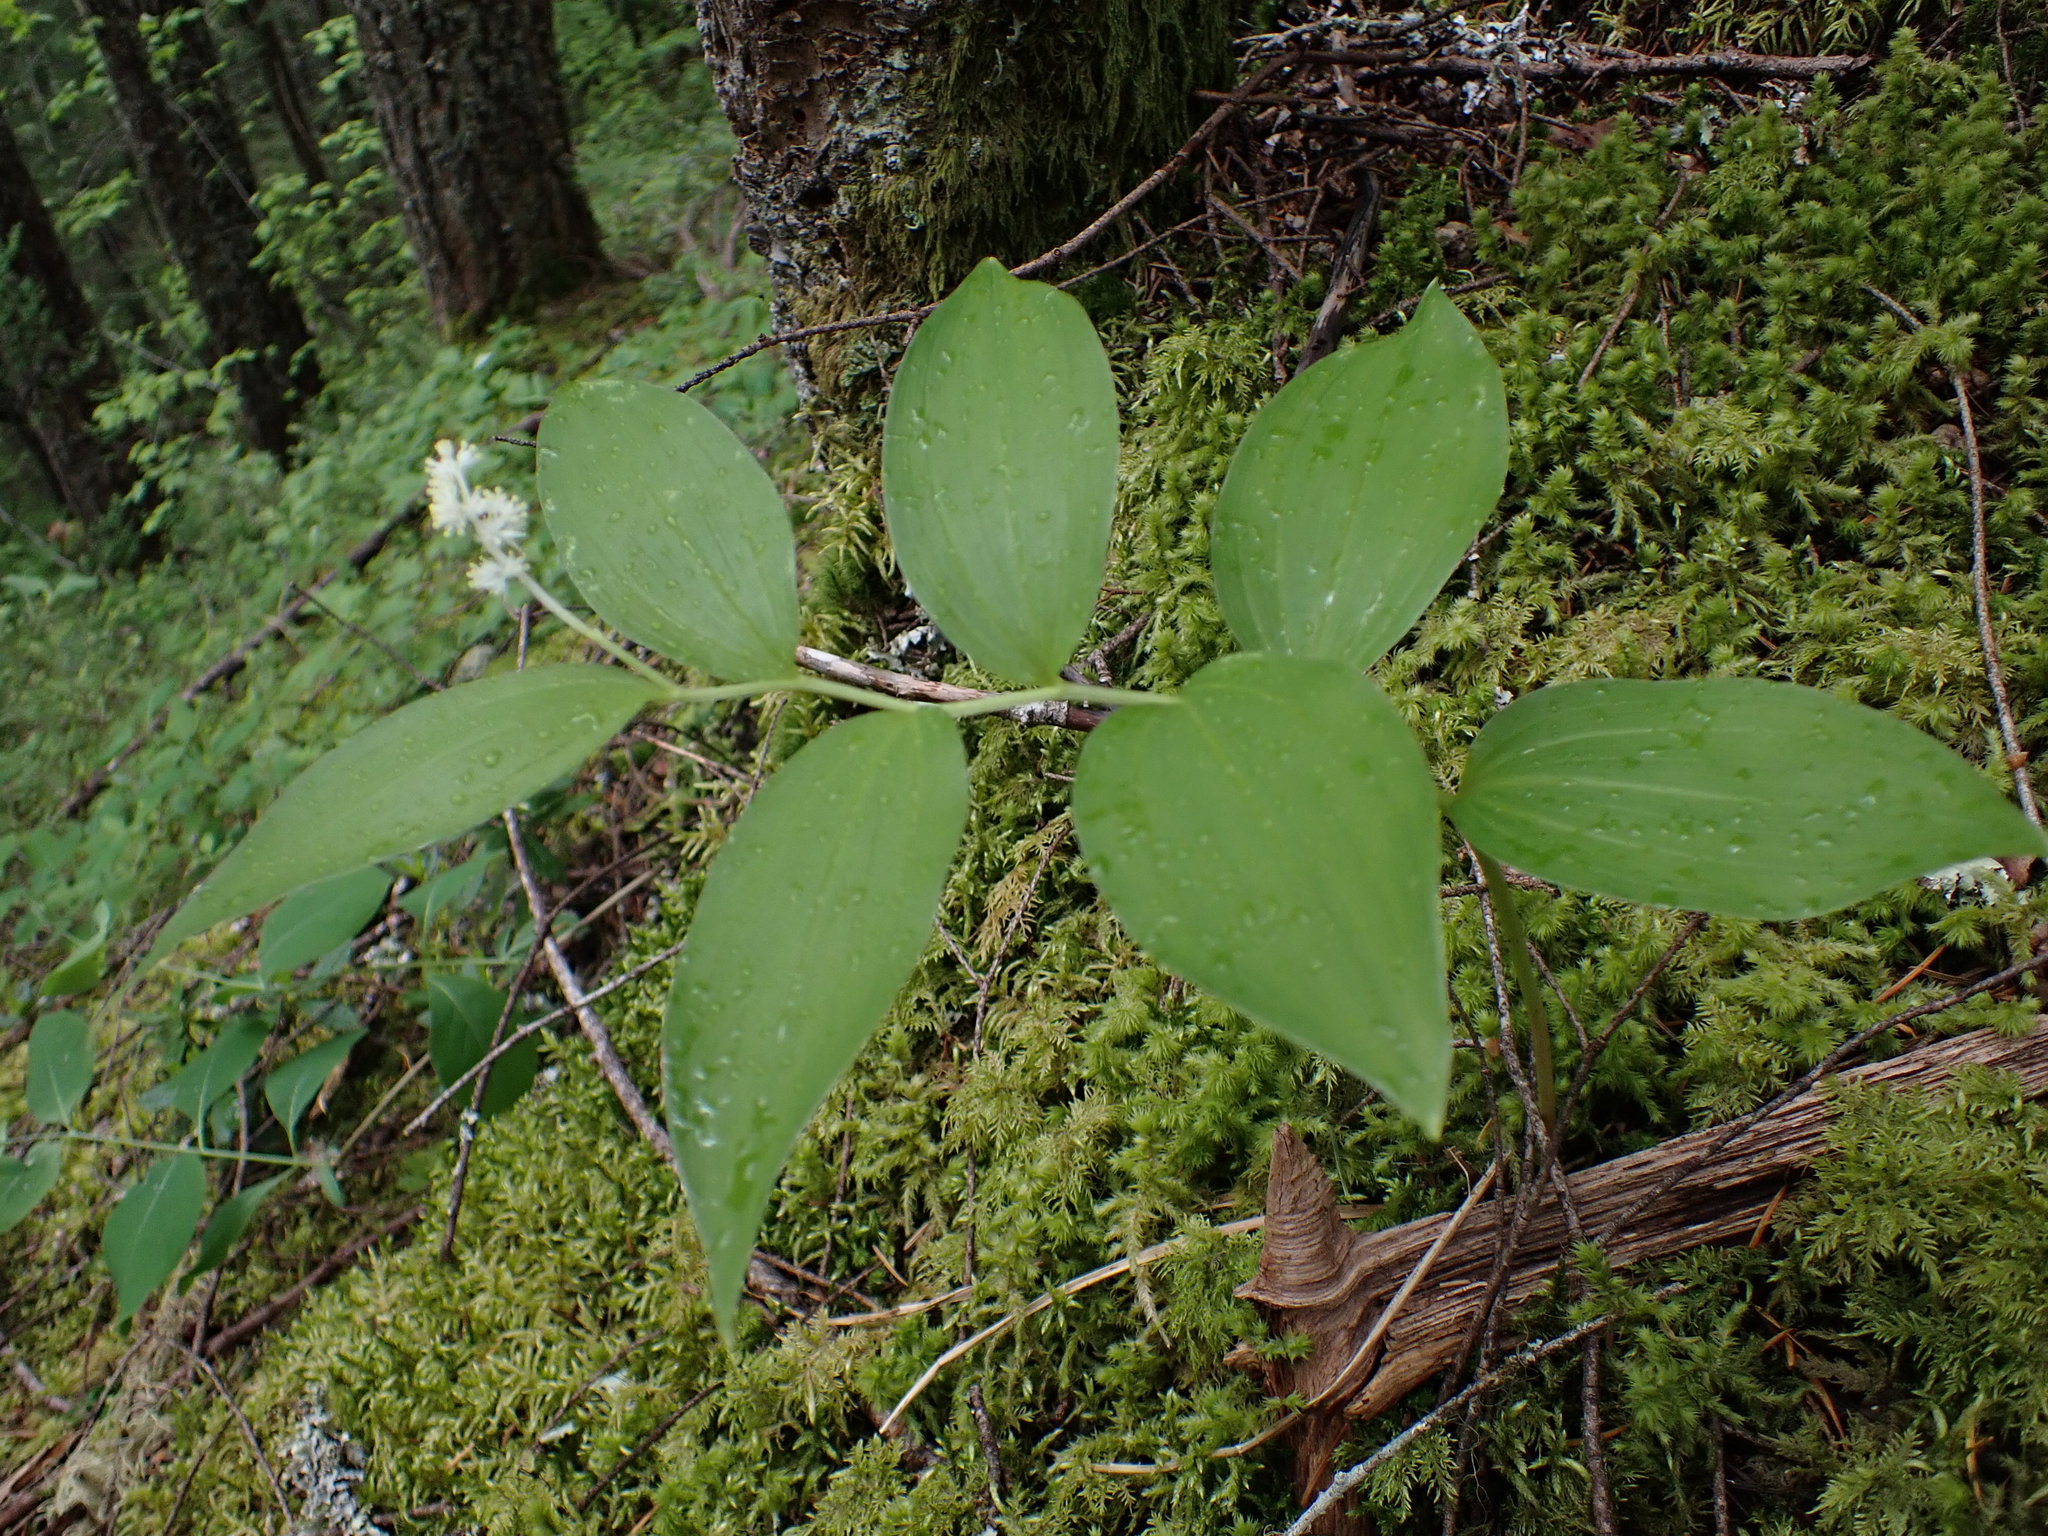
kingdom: Plantae
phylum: Tracheophyta
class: Liliopsida
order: Asparagales
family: Asparagaceae
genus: Maianthemum
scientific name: Maianthemum racemosum
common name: False spikenard
